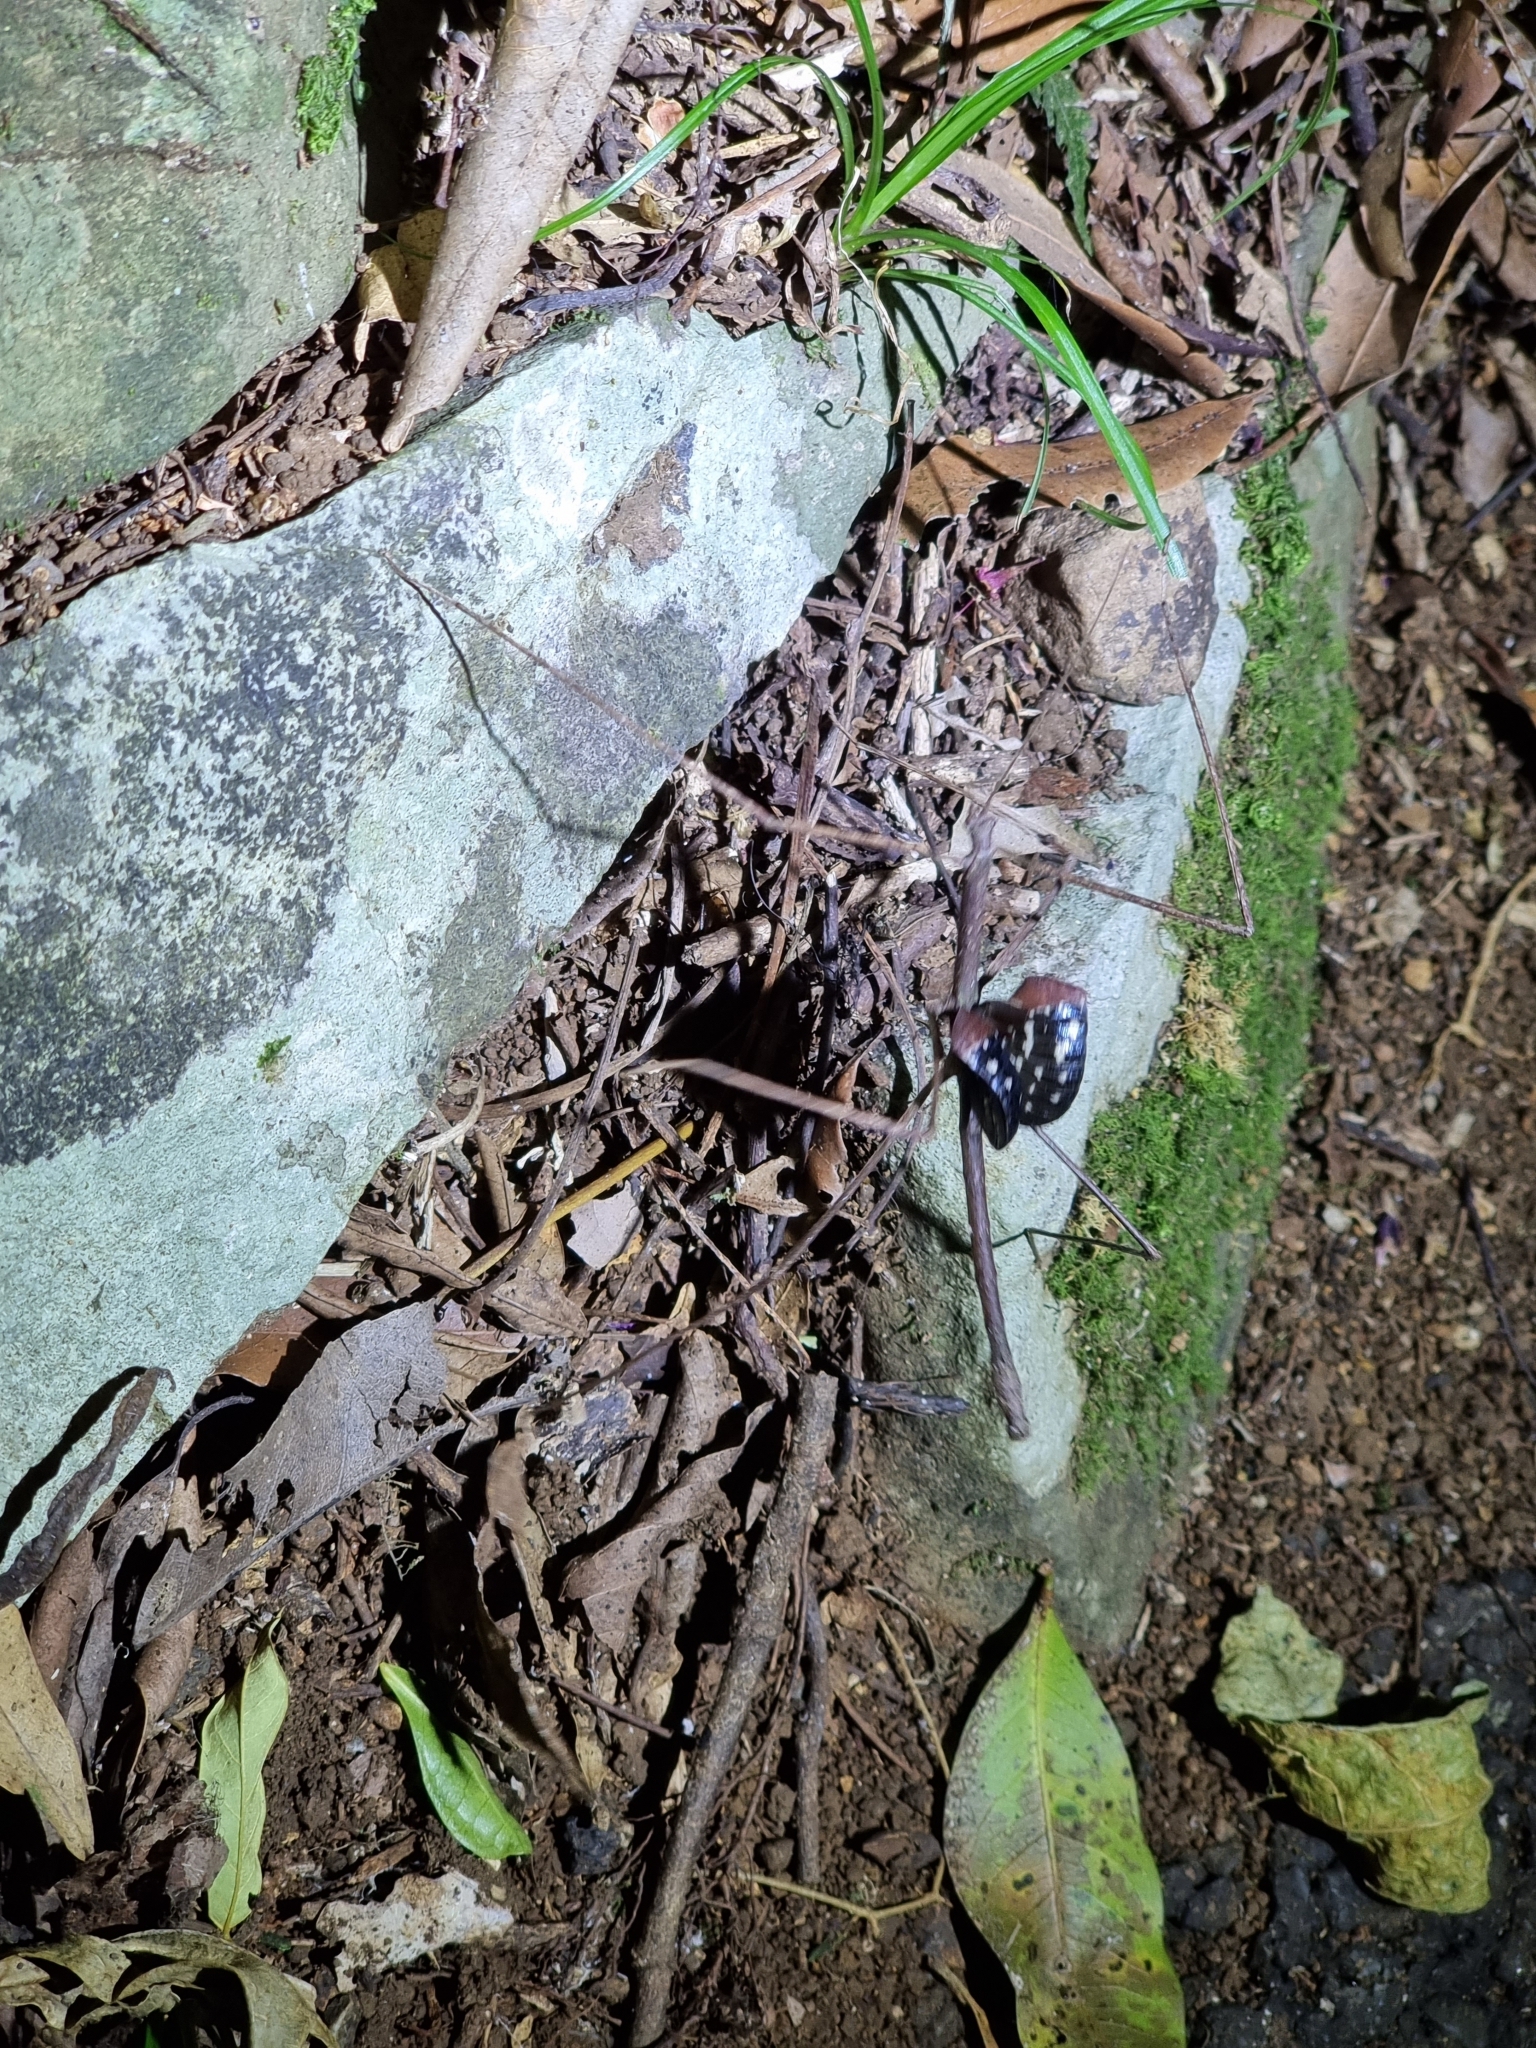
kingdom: Animalia
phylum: Arthropoda
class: Insecta
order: Phasmida
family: Phasmatidae
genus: Onchestus
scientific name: Onchestus gorgus
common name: Gorgon stick-insect
